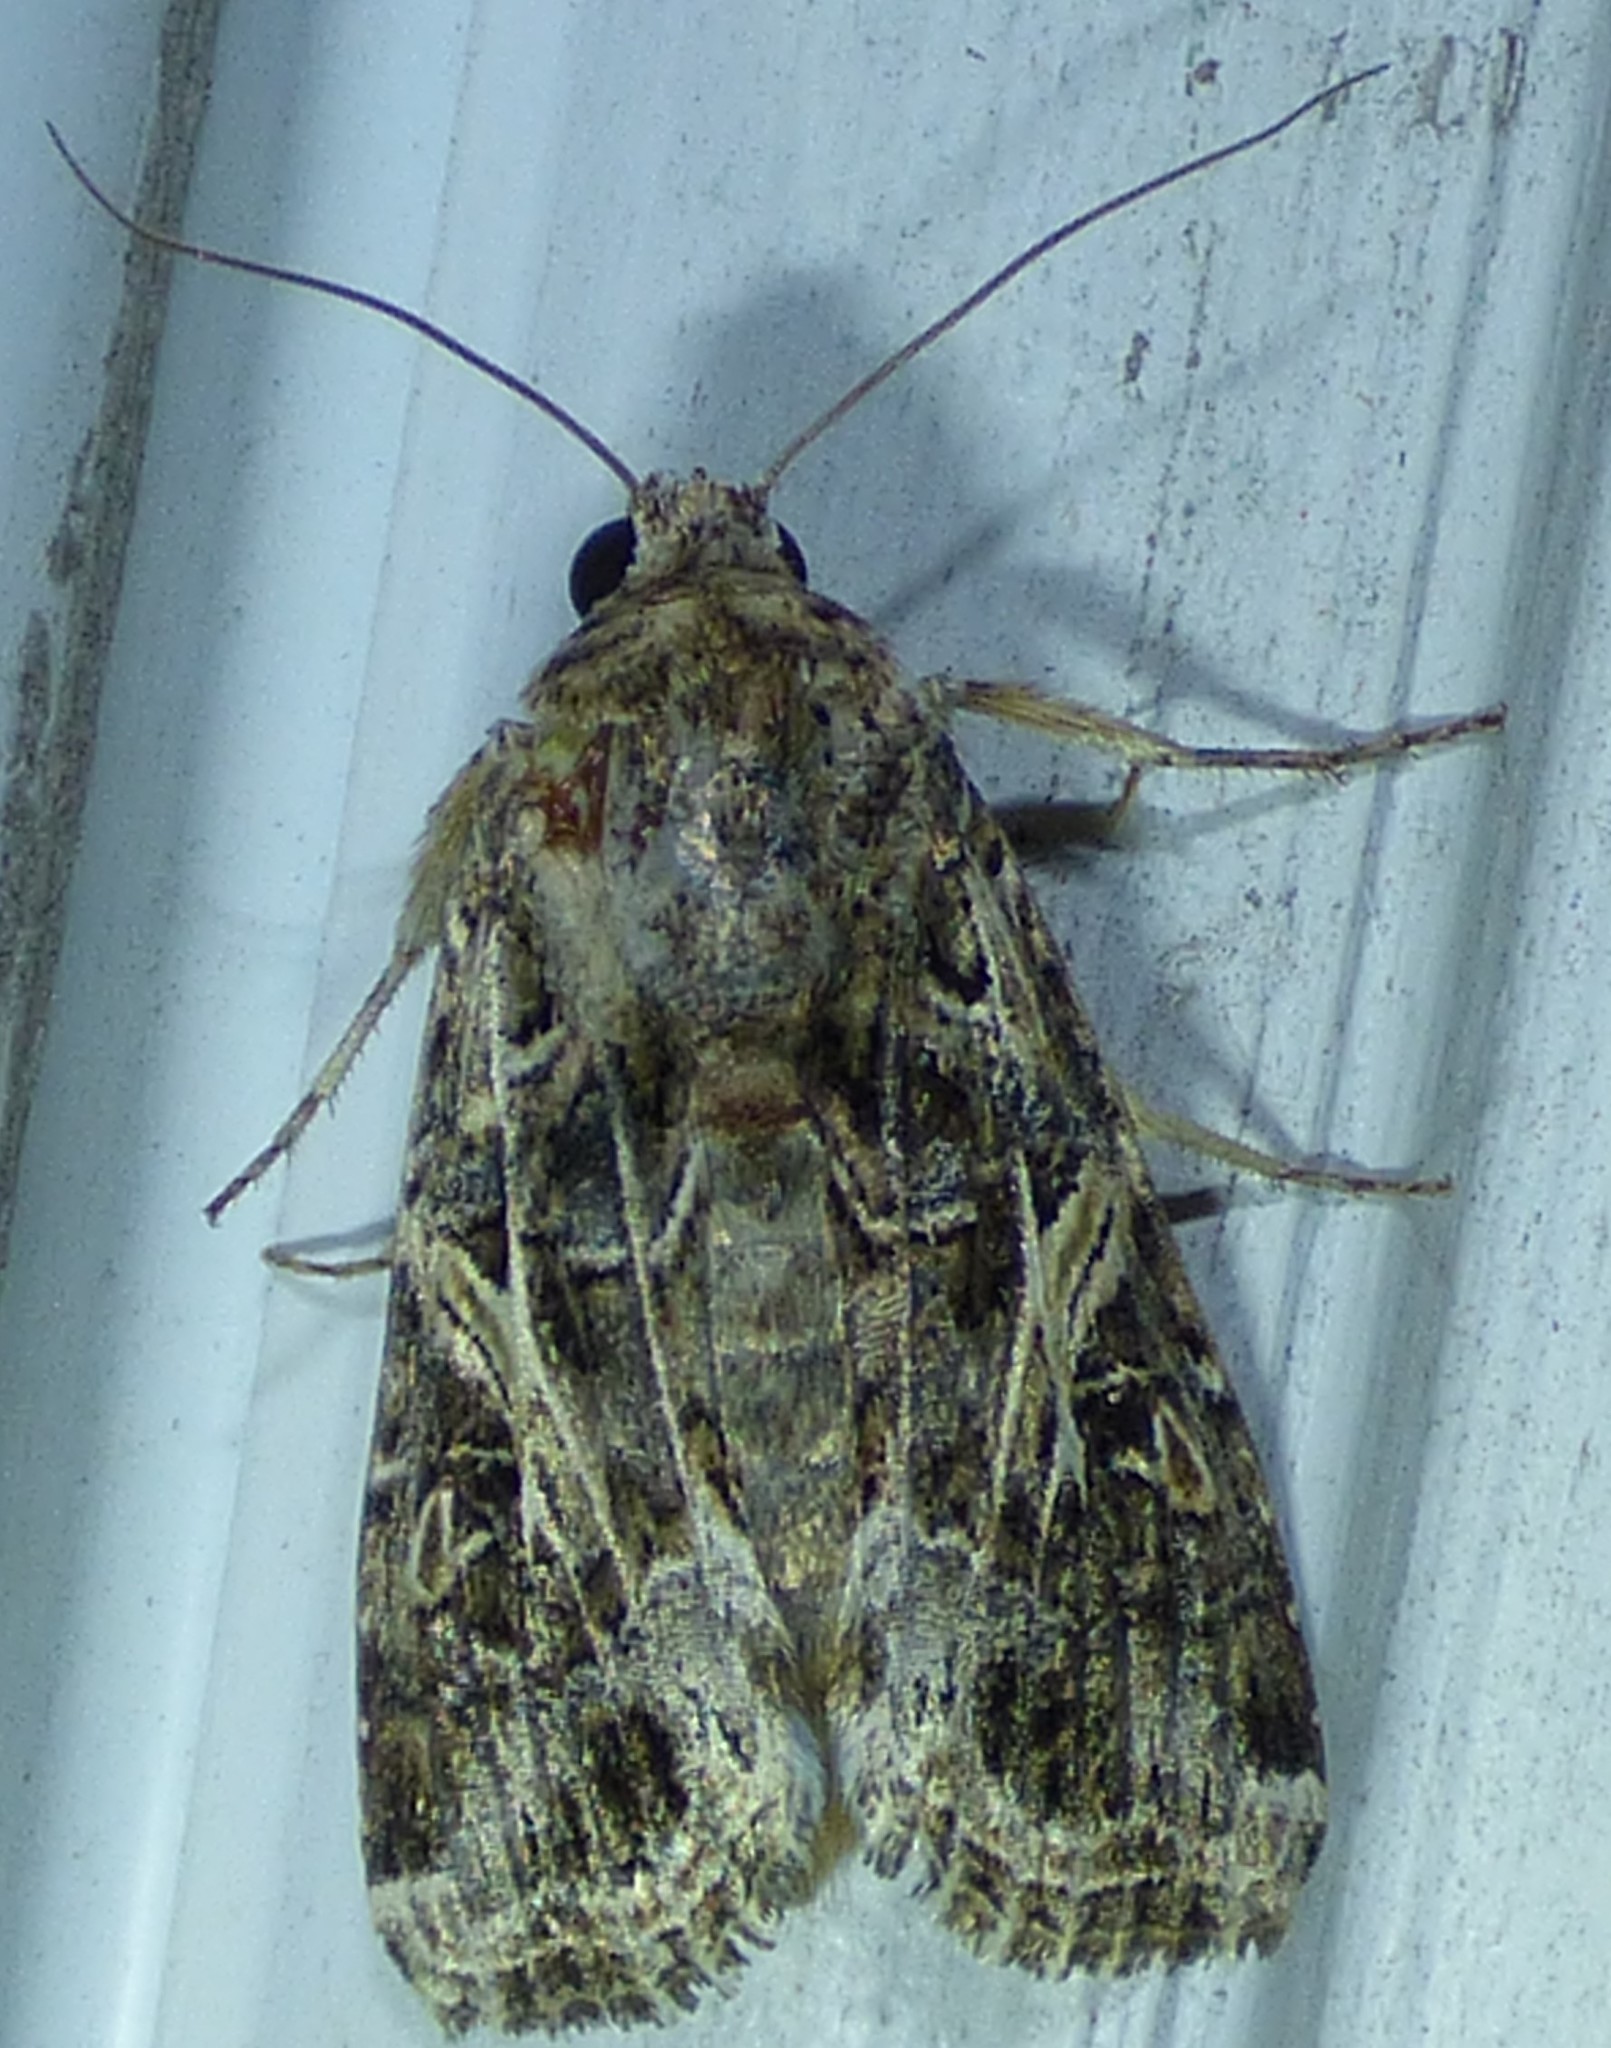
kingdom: Animalia
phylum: Arthropoda
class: Insecta
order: Lepidoptera
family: Noctuidae
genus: Spodoptera
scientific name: Spodoptera ornithogalli
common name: Yellow-striped armyworm
